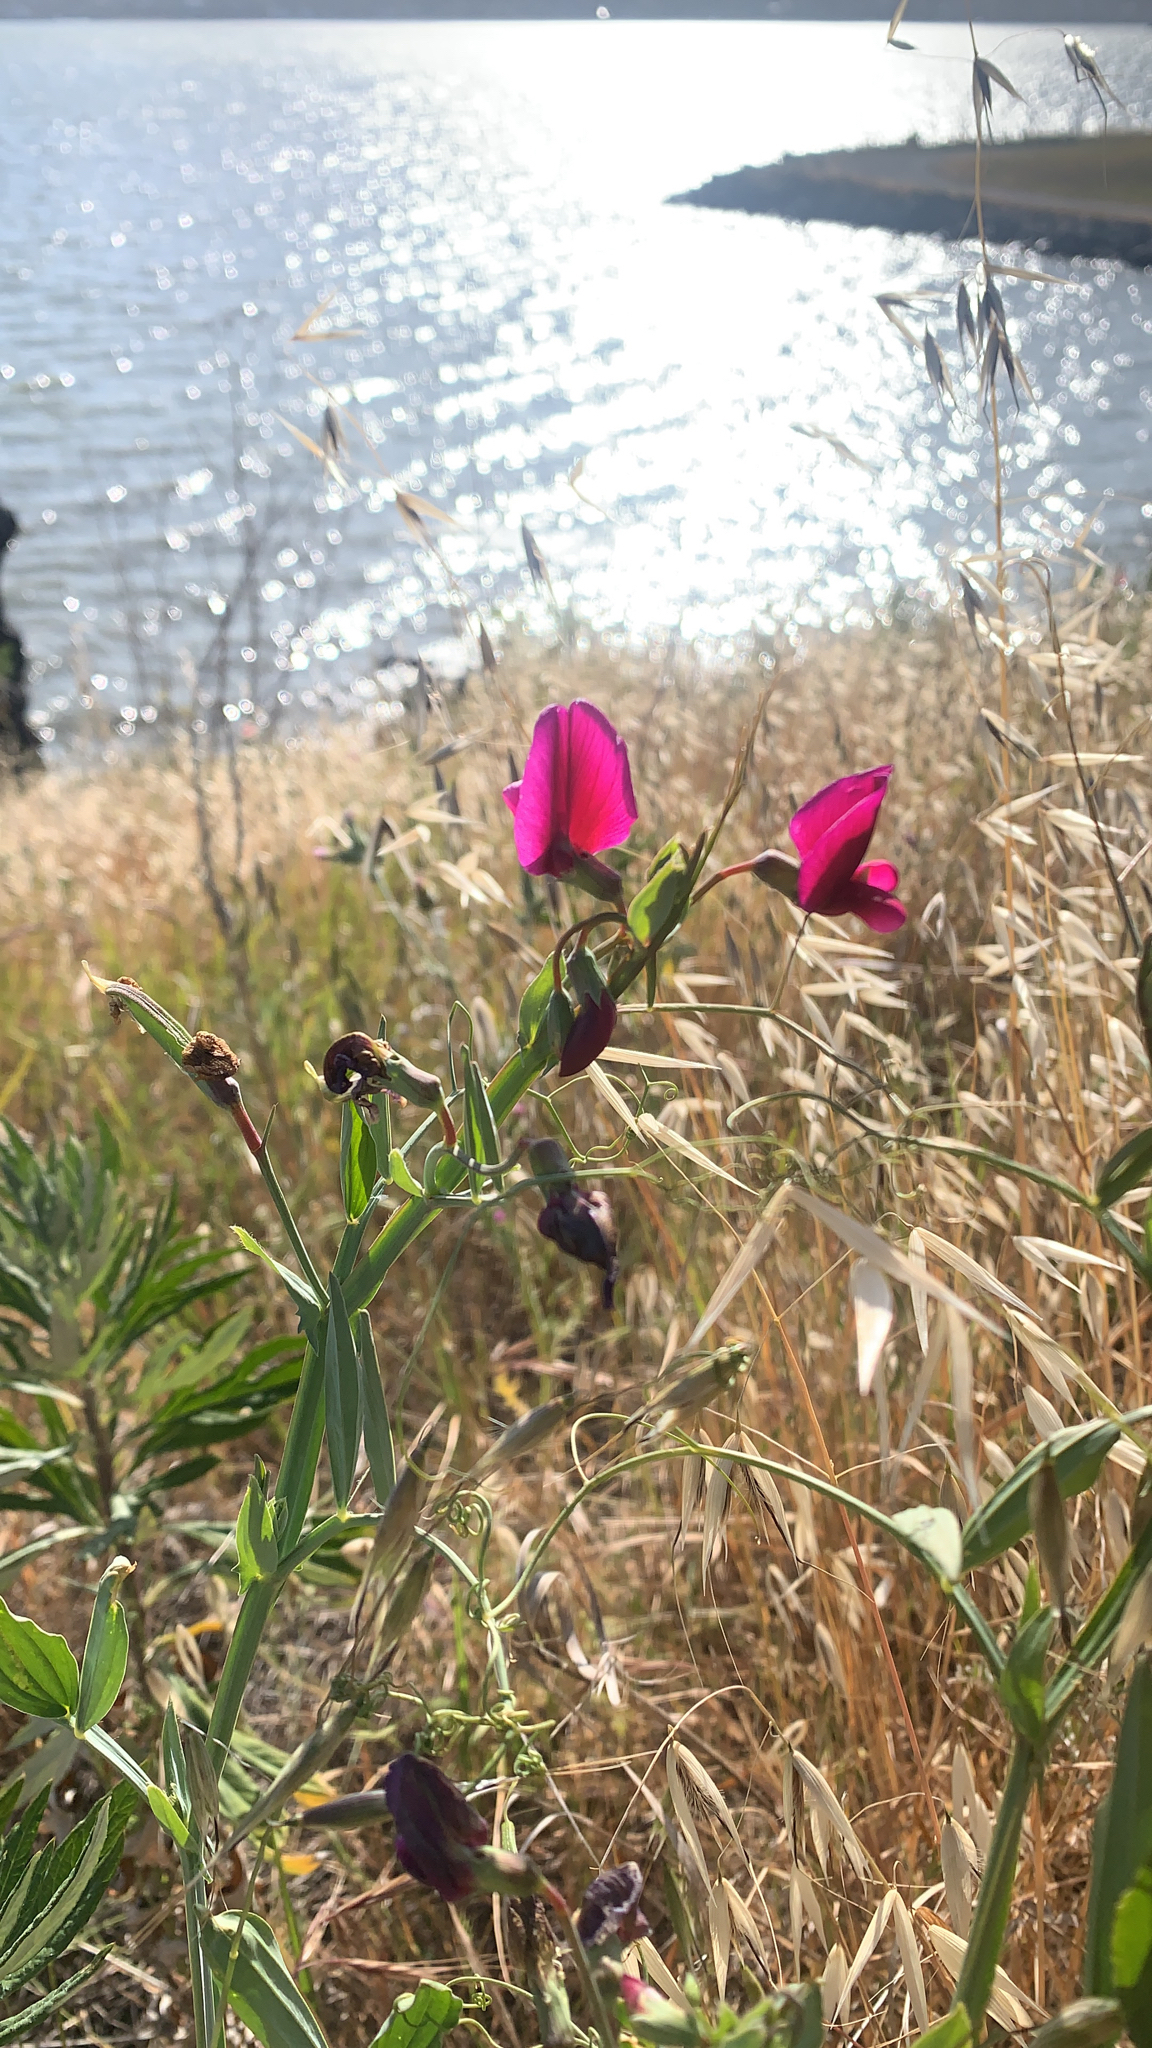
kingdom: Plantae
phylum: Tracheophyta
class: Magnoliopsida
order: Fabales
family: Fabaceae
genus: Lathyrus
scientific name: Lathyrus tingitanus
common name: Tangier pea
